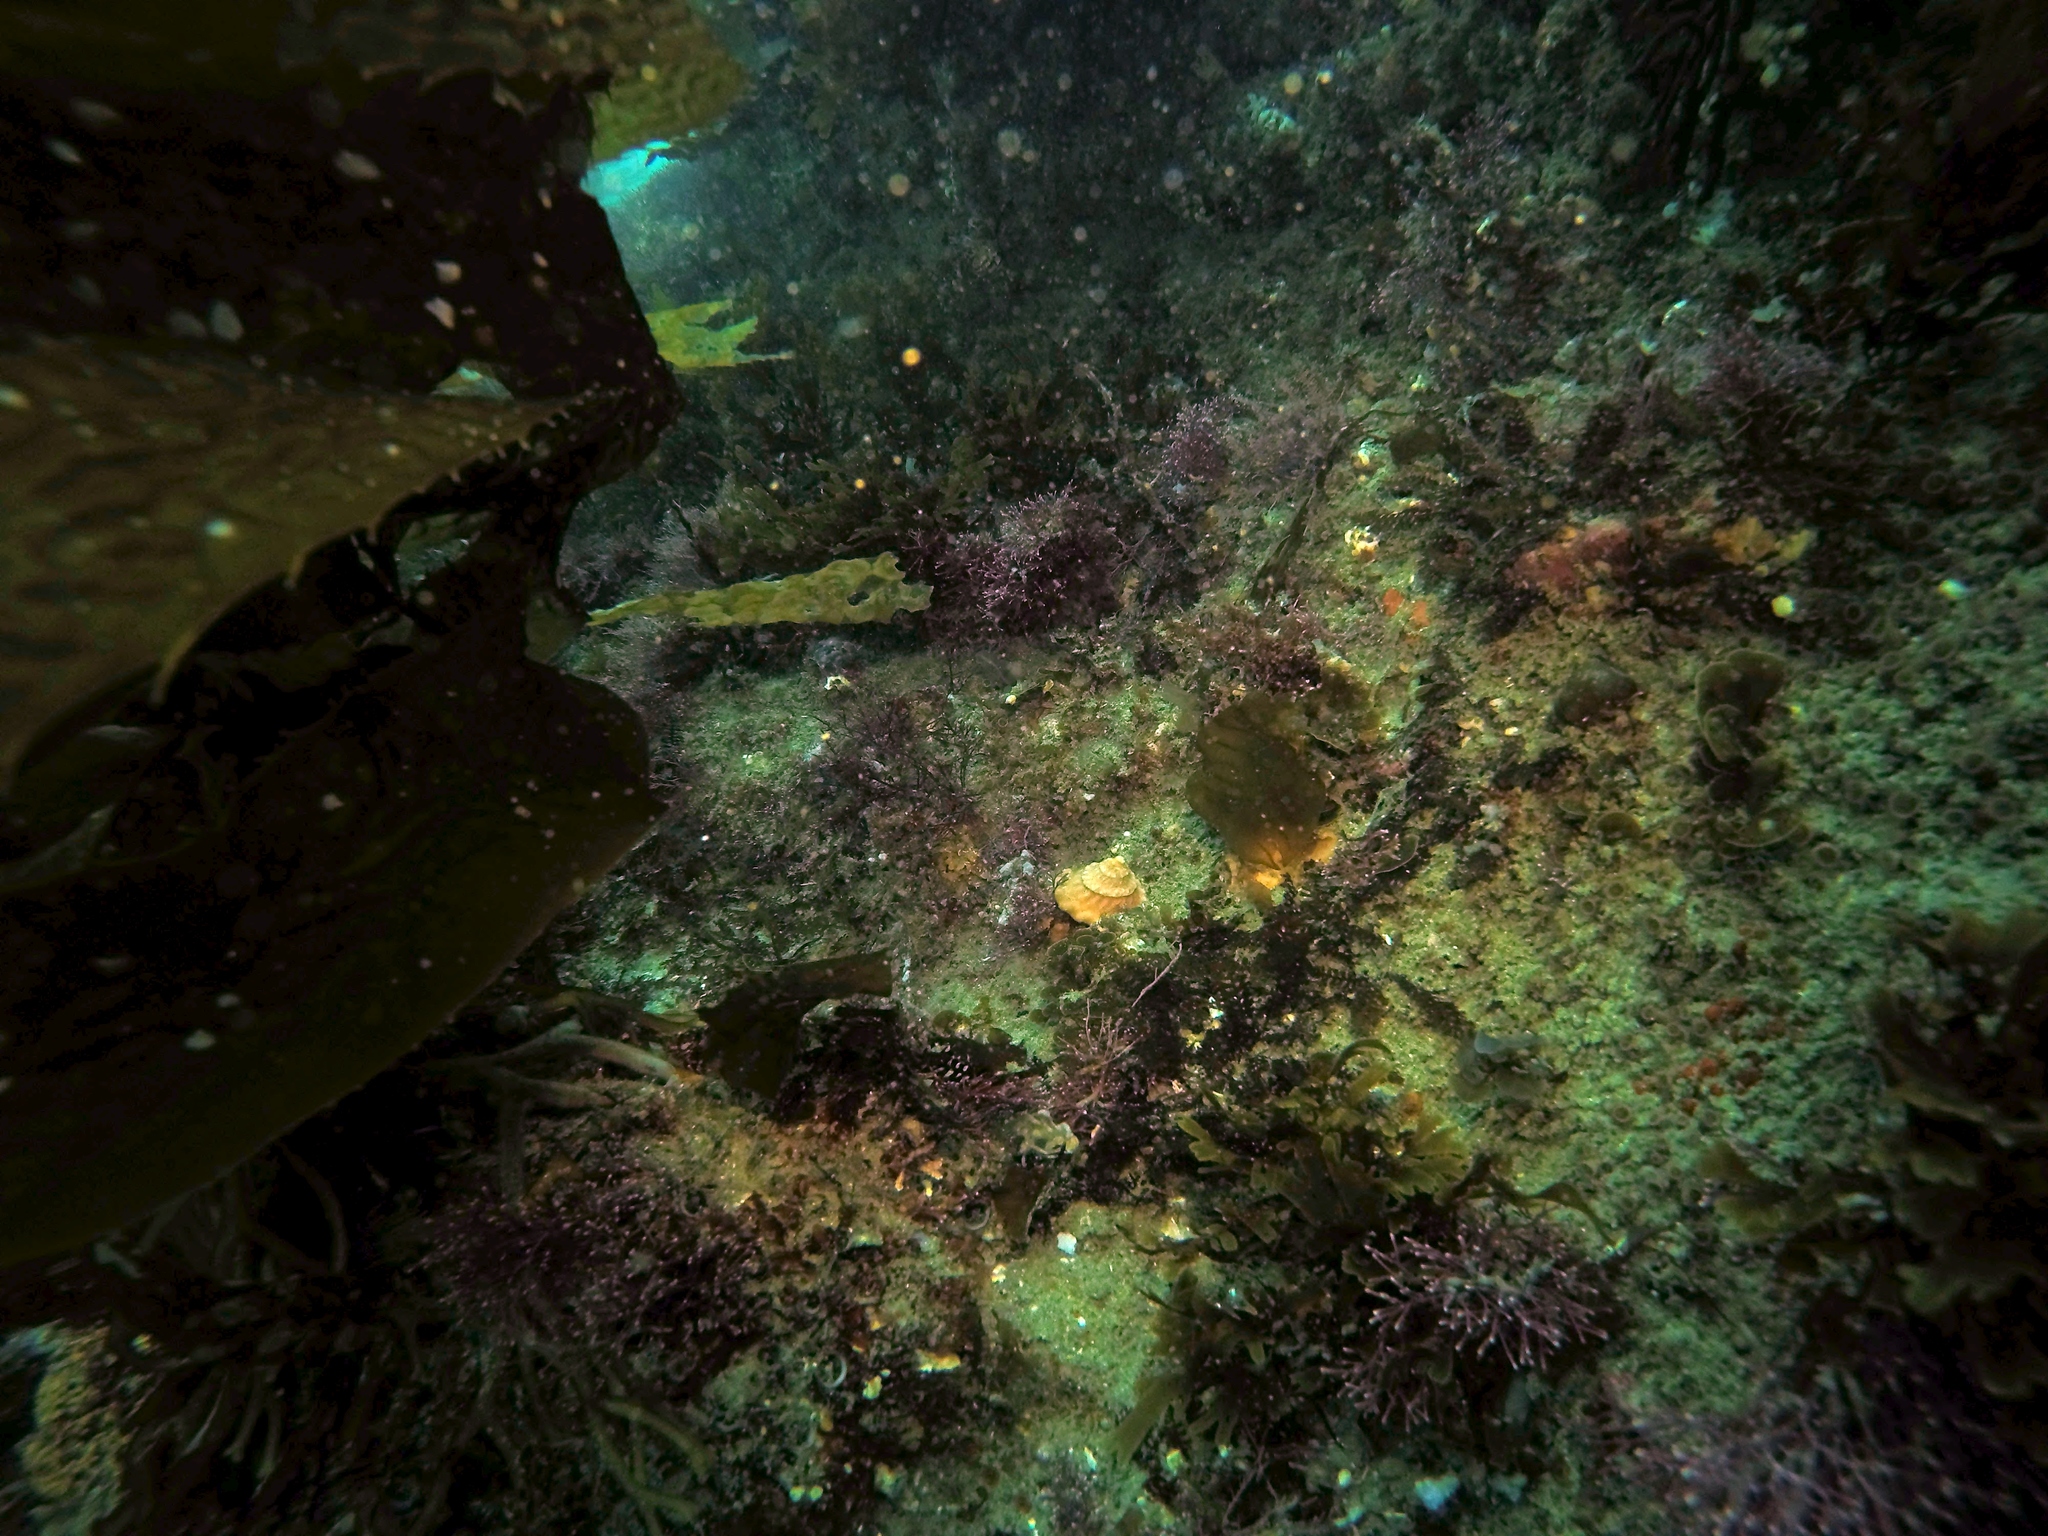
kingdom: Animalia
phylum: Mollusca
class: Gastropoda
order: Trochida
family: Turbinidae
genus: Megastraea
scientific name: Megastraea undosa
